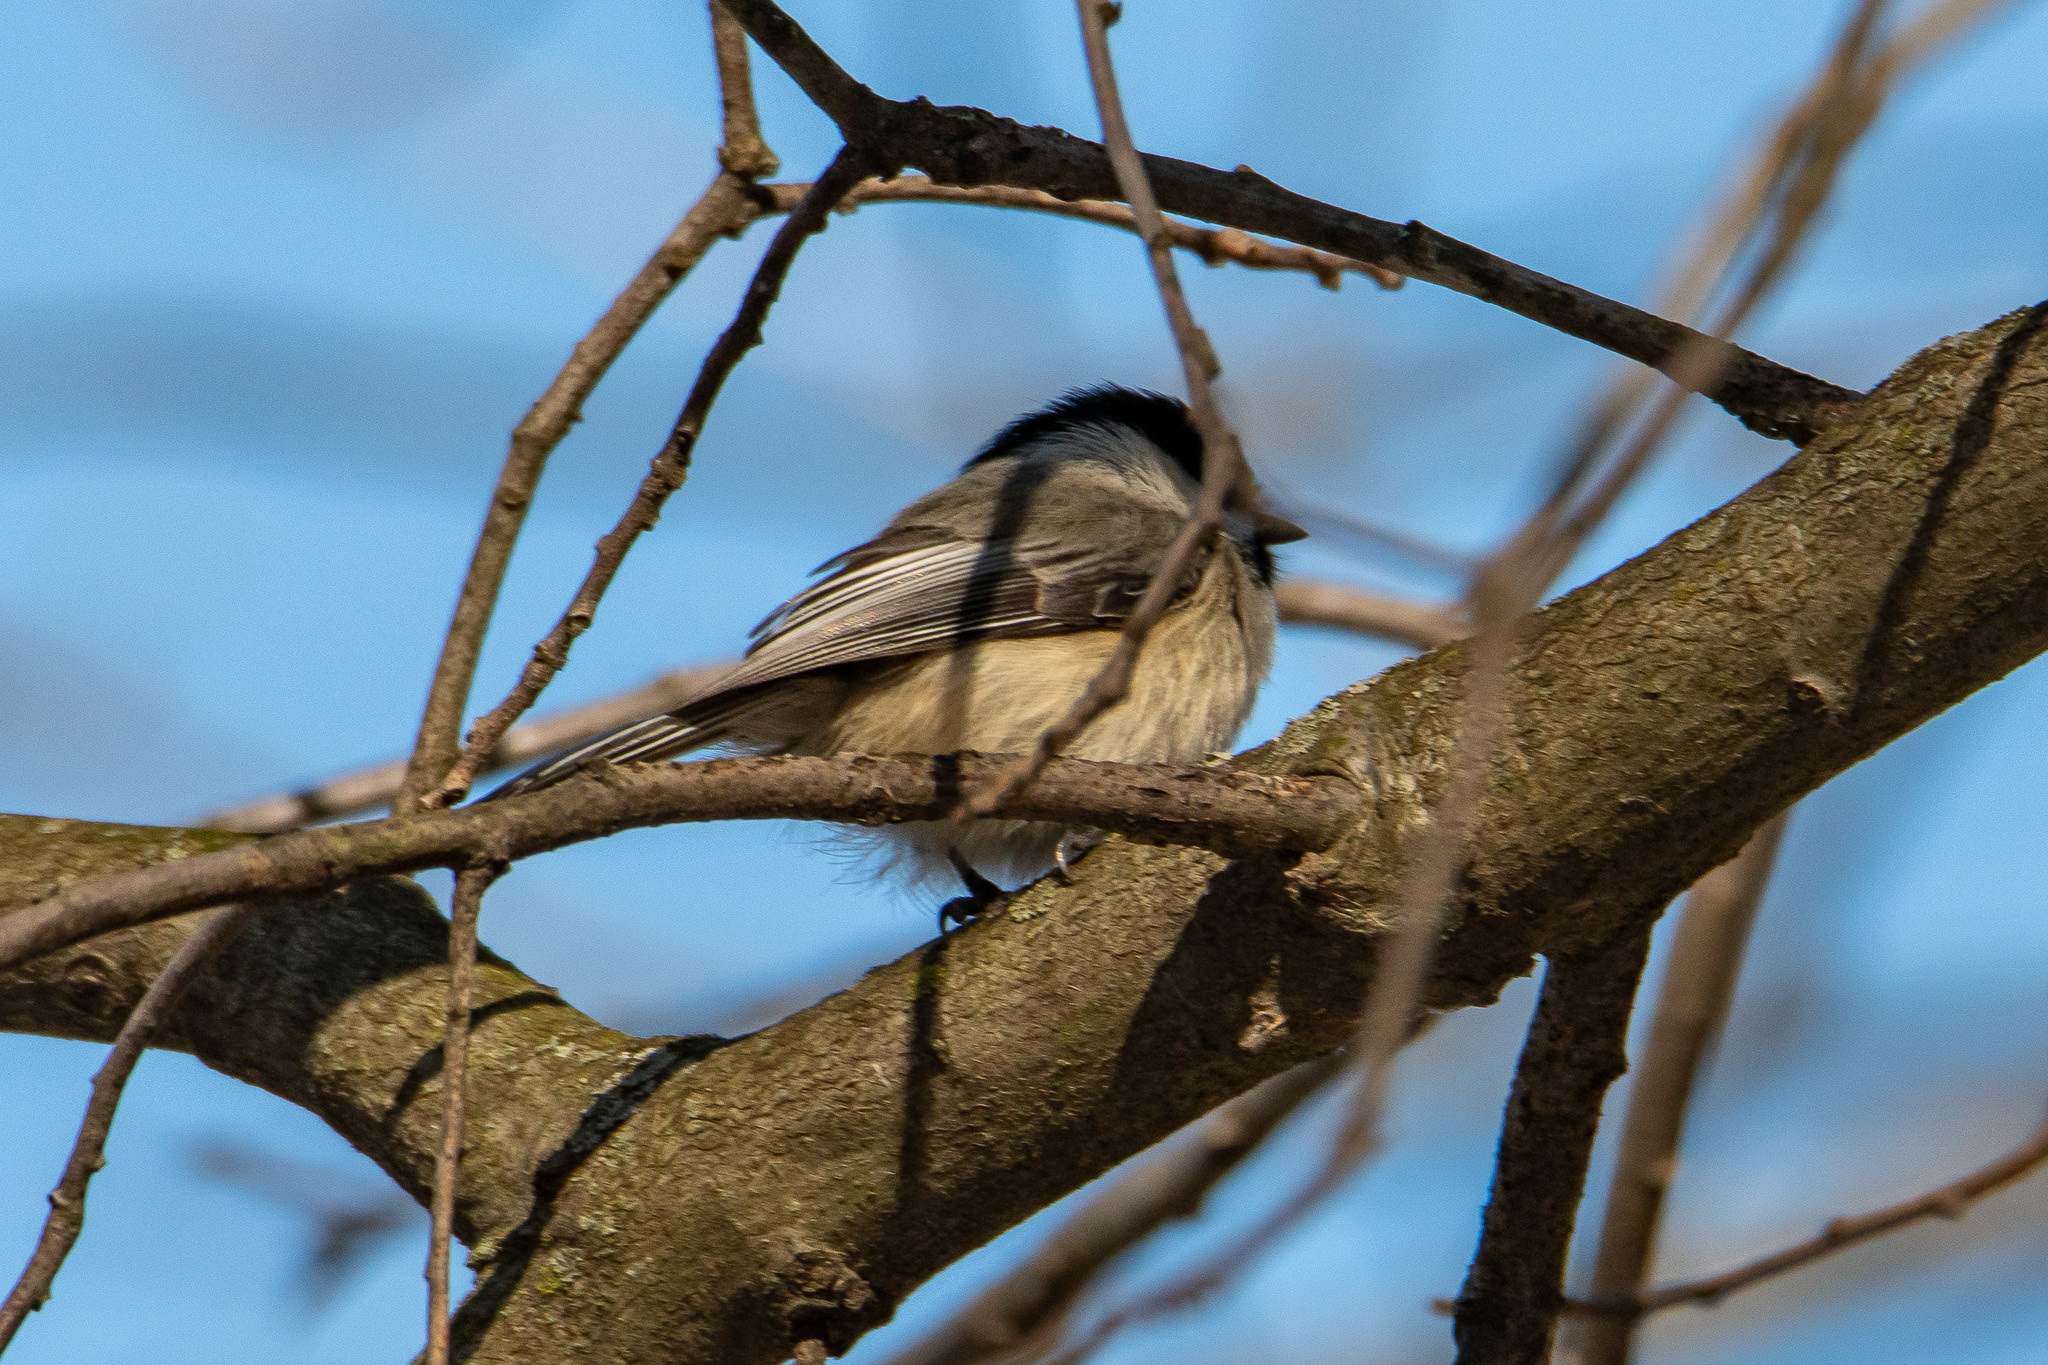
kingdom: Animalia
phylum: Chordata
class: Aves
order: Passeriformes
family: Paridae
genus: Poecile
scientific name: Poecile atricapillus
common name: Black-capped chickadee
